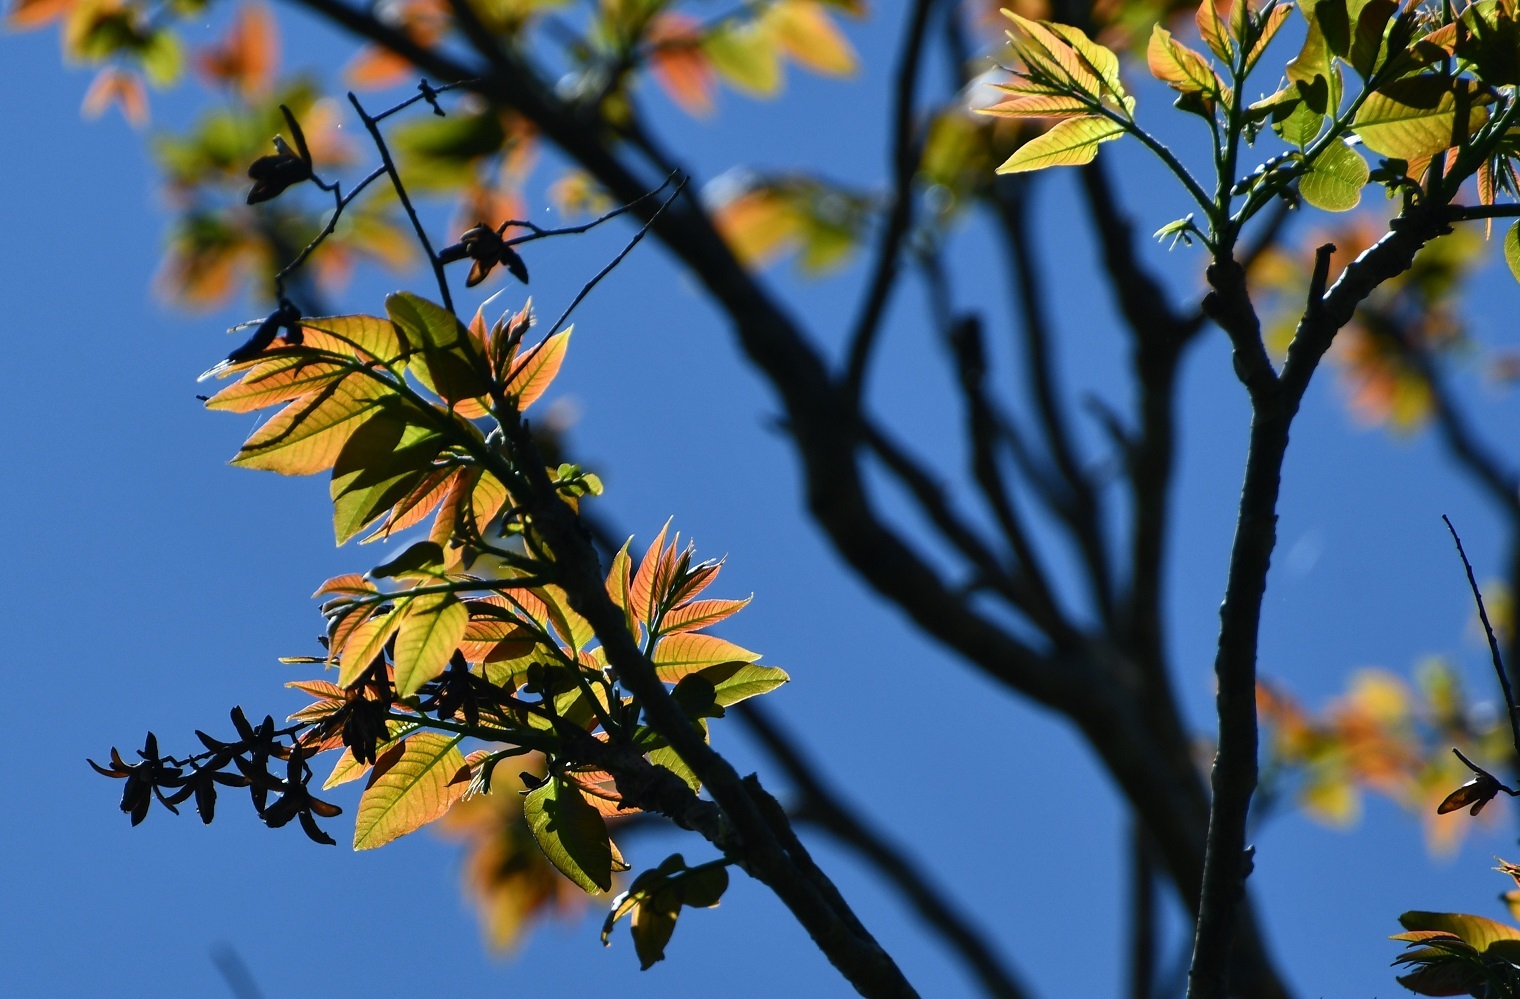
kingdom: Plantae
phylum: Tracheophyta
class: Magnoliopsida
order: Sapindales
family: Meliaceae
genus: Cedrela
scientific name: Cedrela odorata
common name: Red cedar
